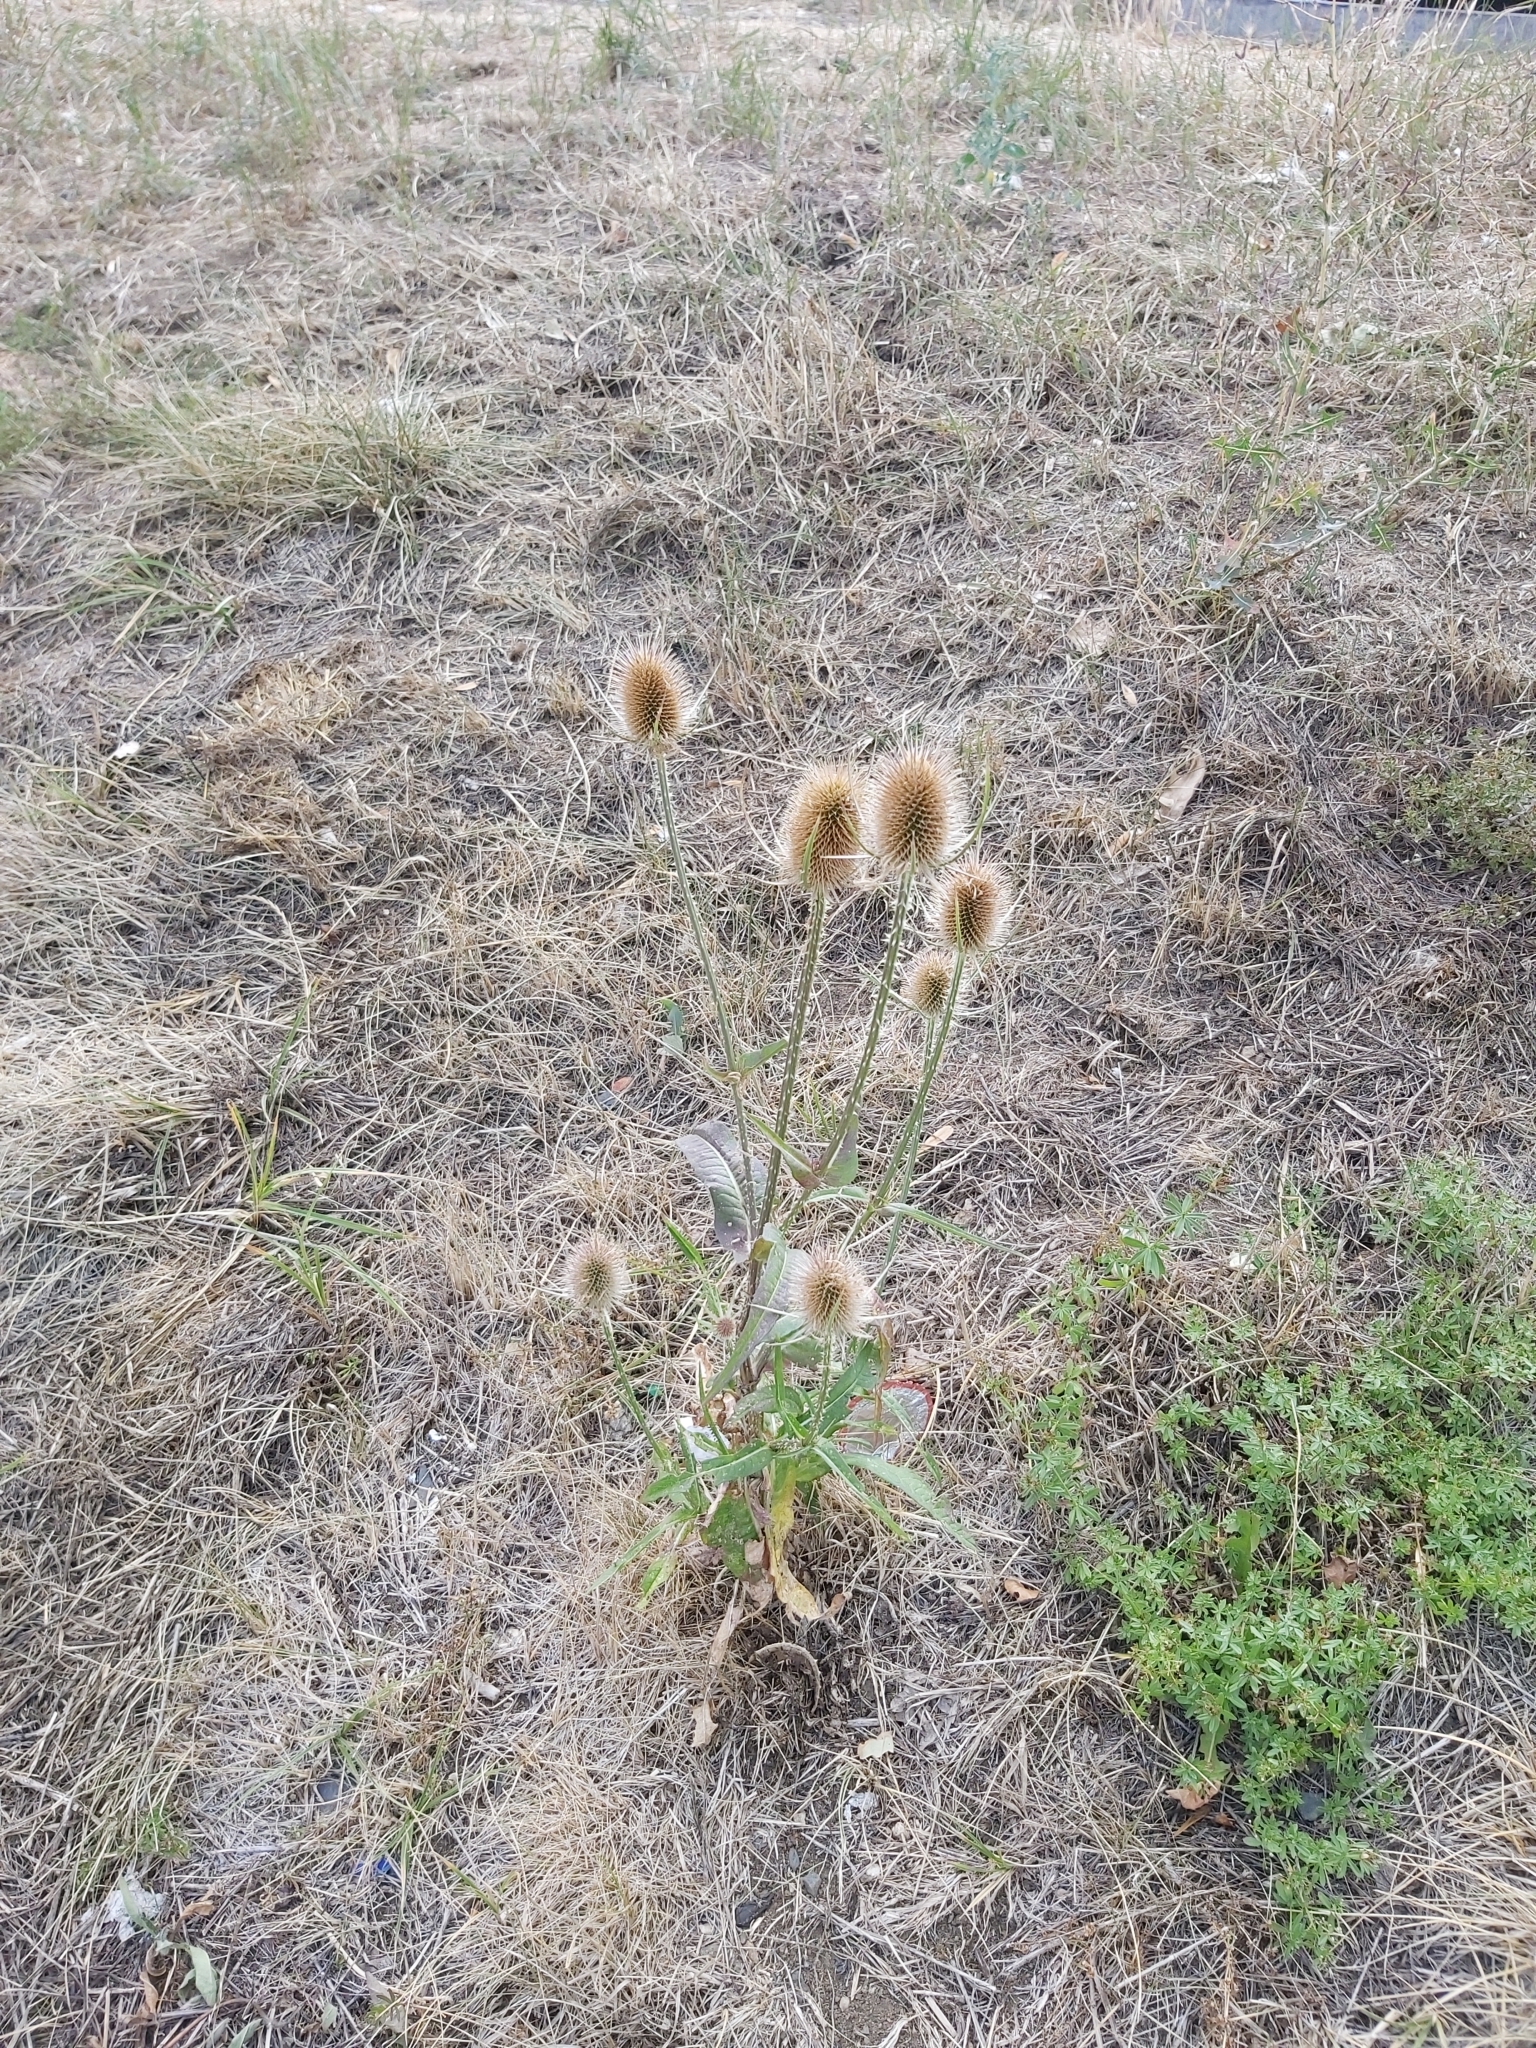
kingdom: Plantae
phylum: Tracheophyta
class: Magnoliopsida
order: Dipsacales
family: Caprifoliaceae
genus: Dipsacus
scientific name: Dipsacus fullonum
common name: Teasel
